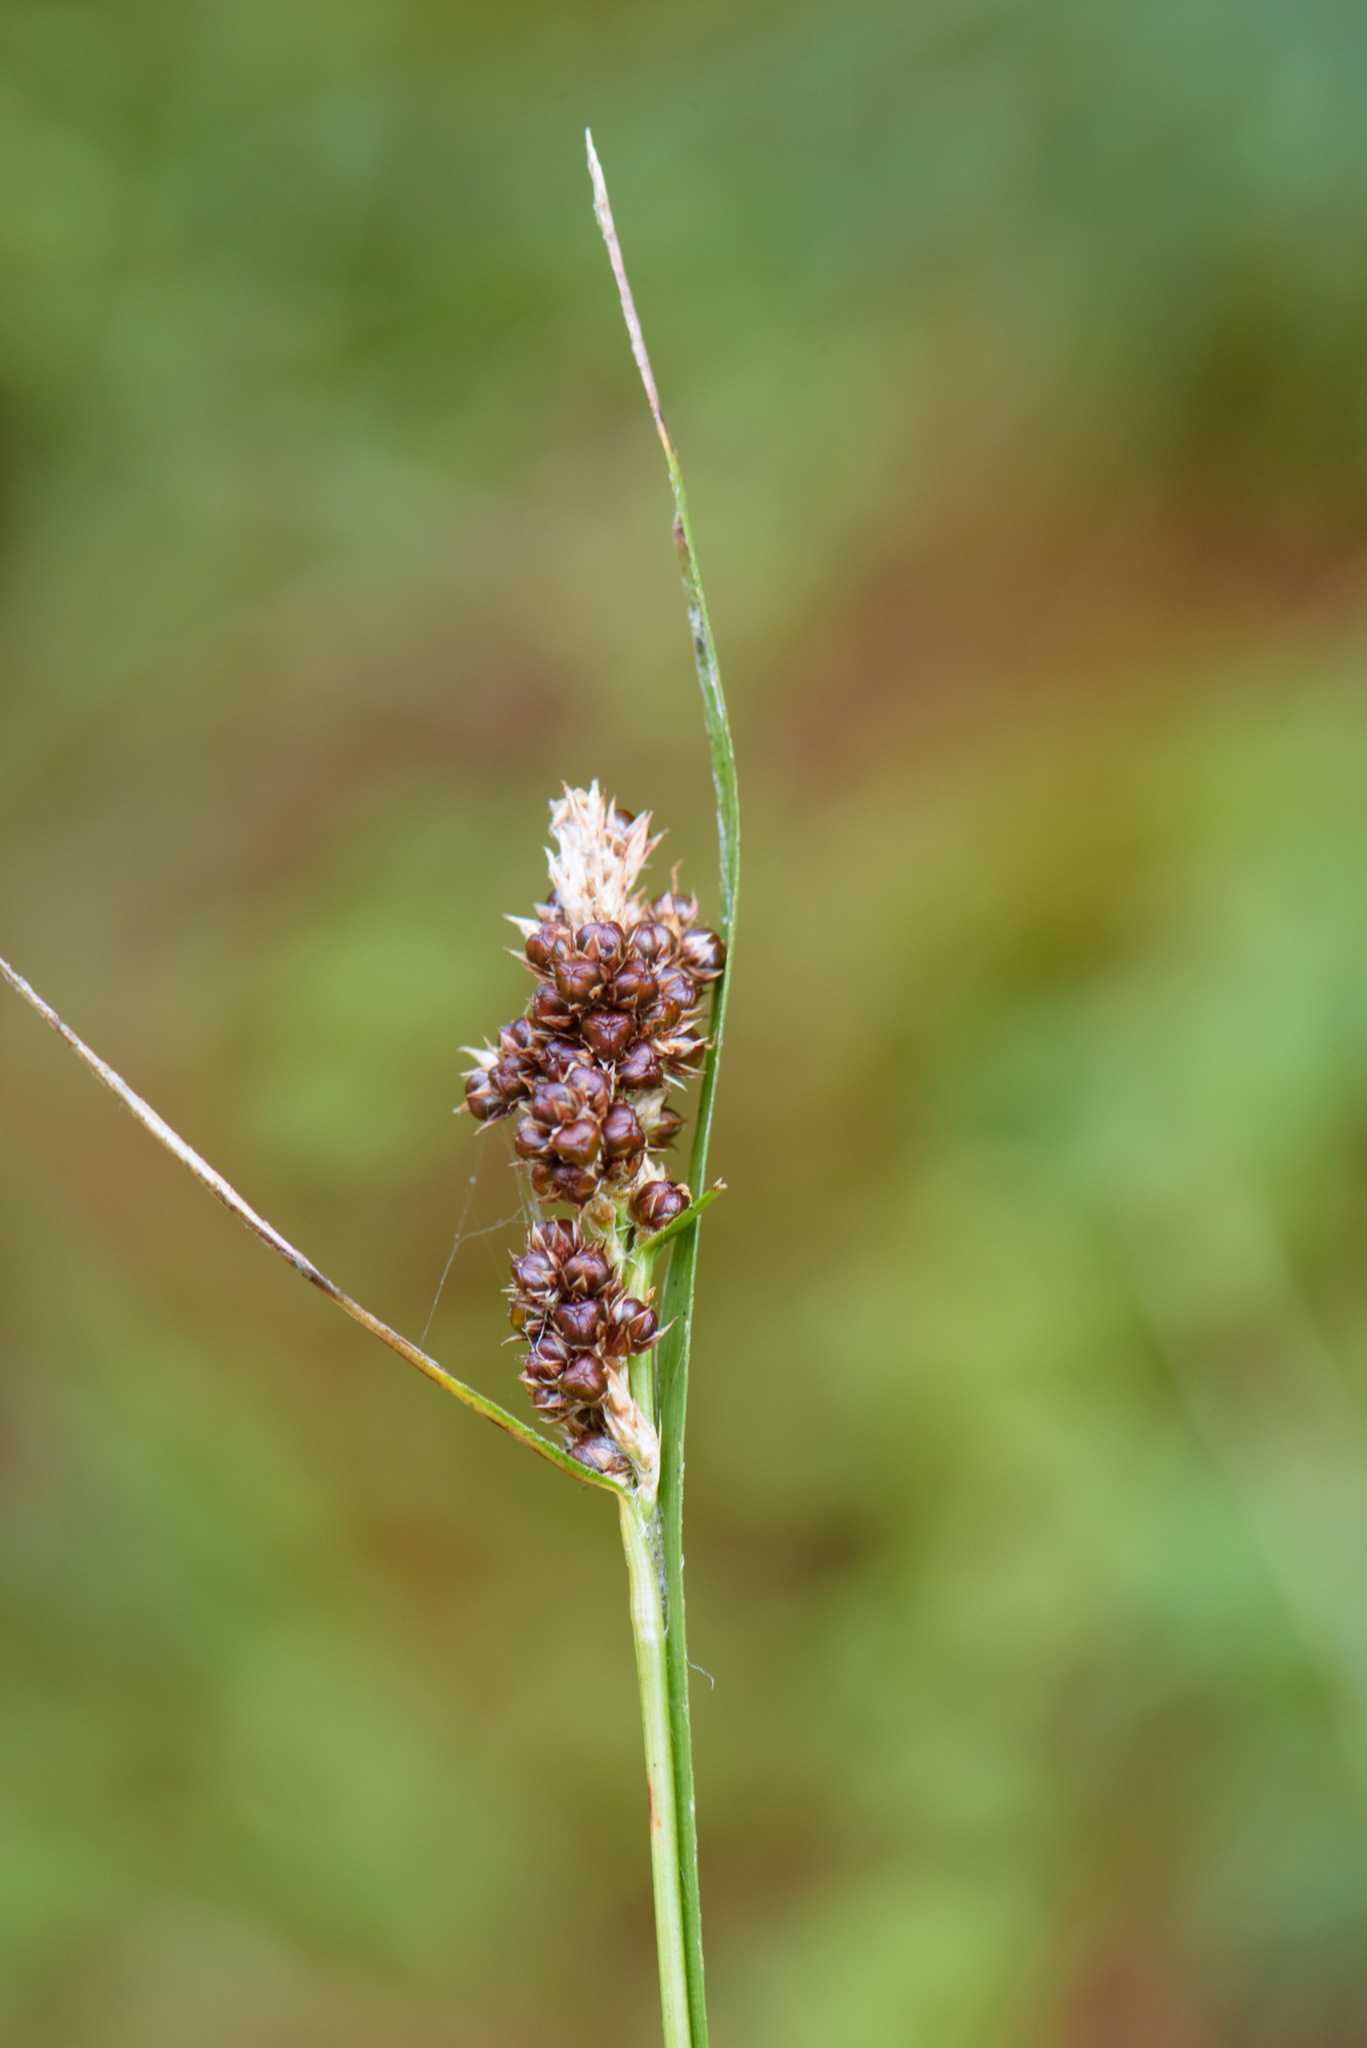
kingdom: Plantae
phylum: Tracheophyta
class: Liliopsida
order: Poales
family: Juncaceae
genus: Luzula
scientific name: Luzula taiwaniana
